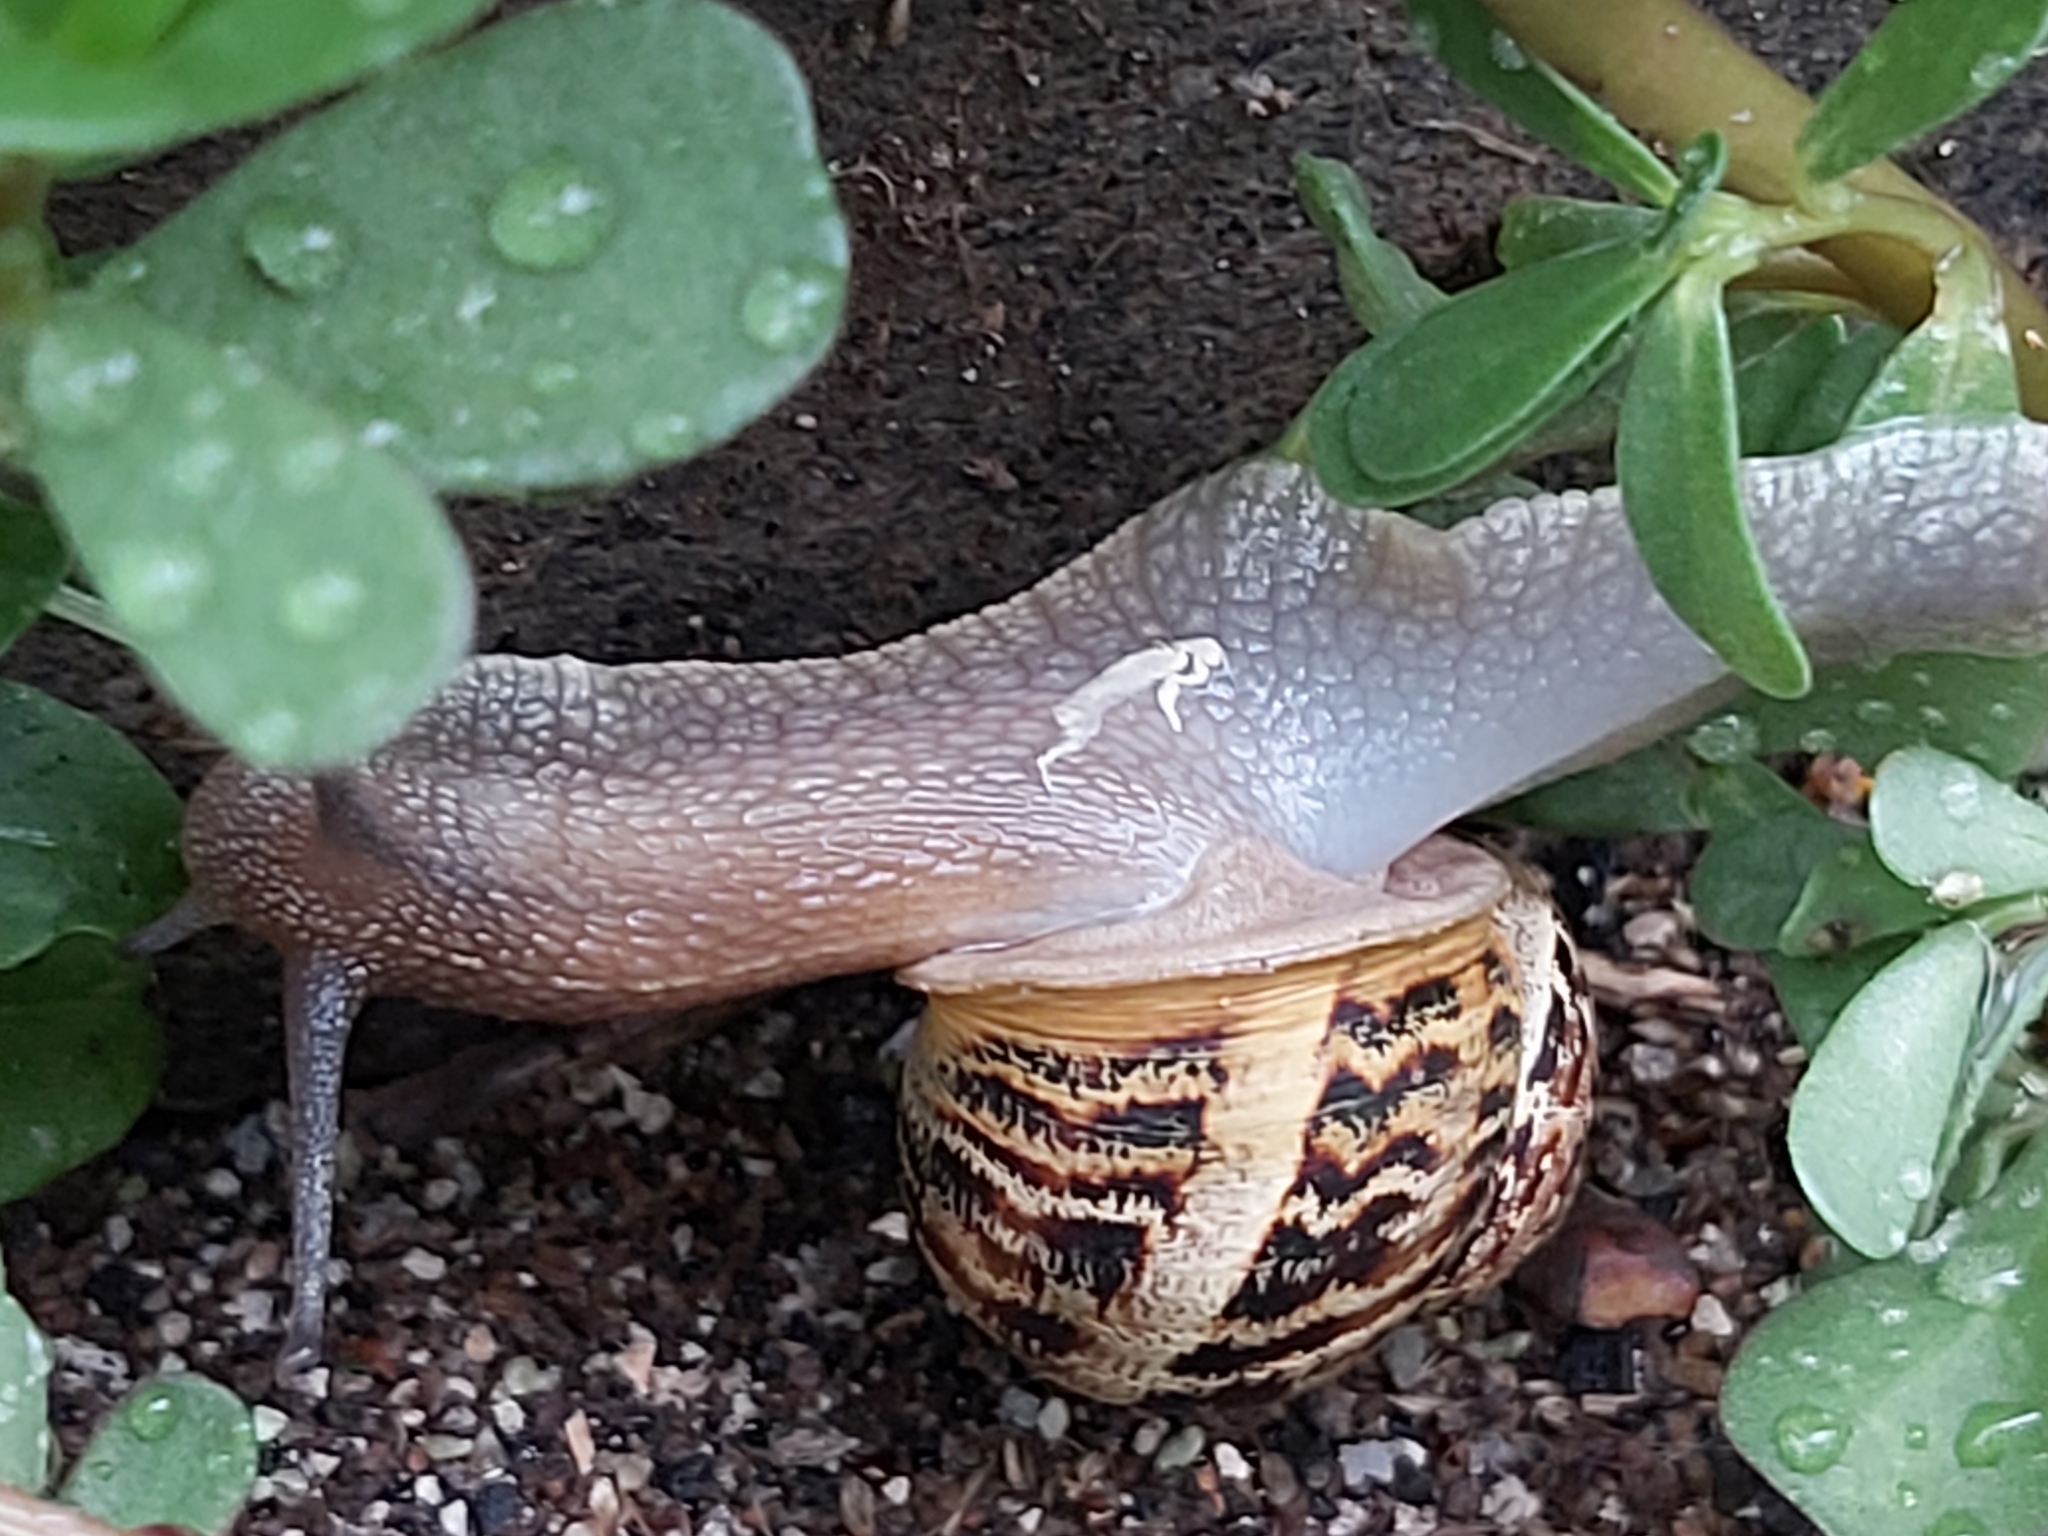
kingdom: Animalia
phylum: Mollusca
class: Gastropoda
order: Stylommatophora
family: Helicidae
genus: Cornu
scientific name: Cornu aspersum
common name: Brown garden snail
